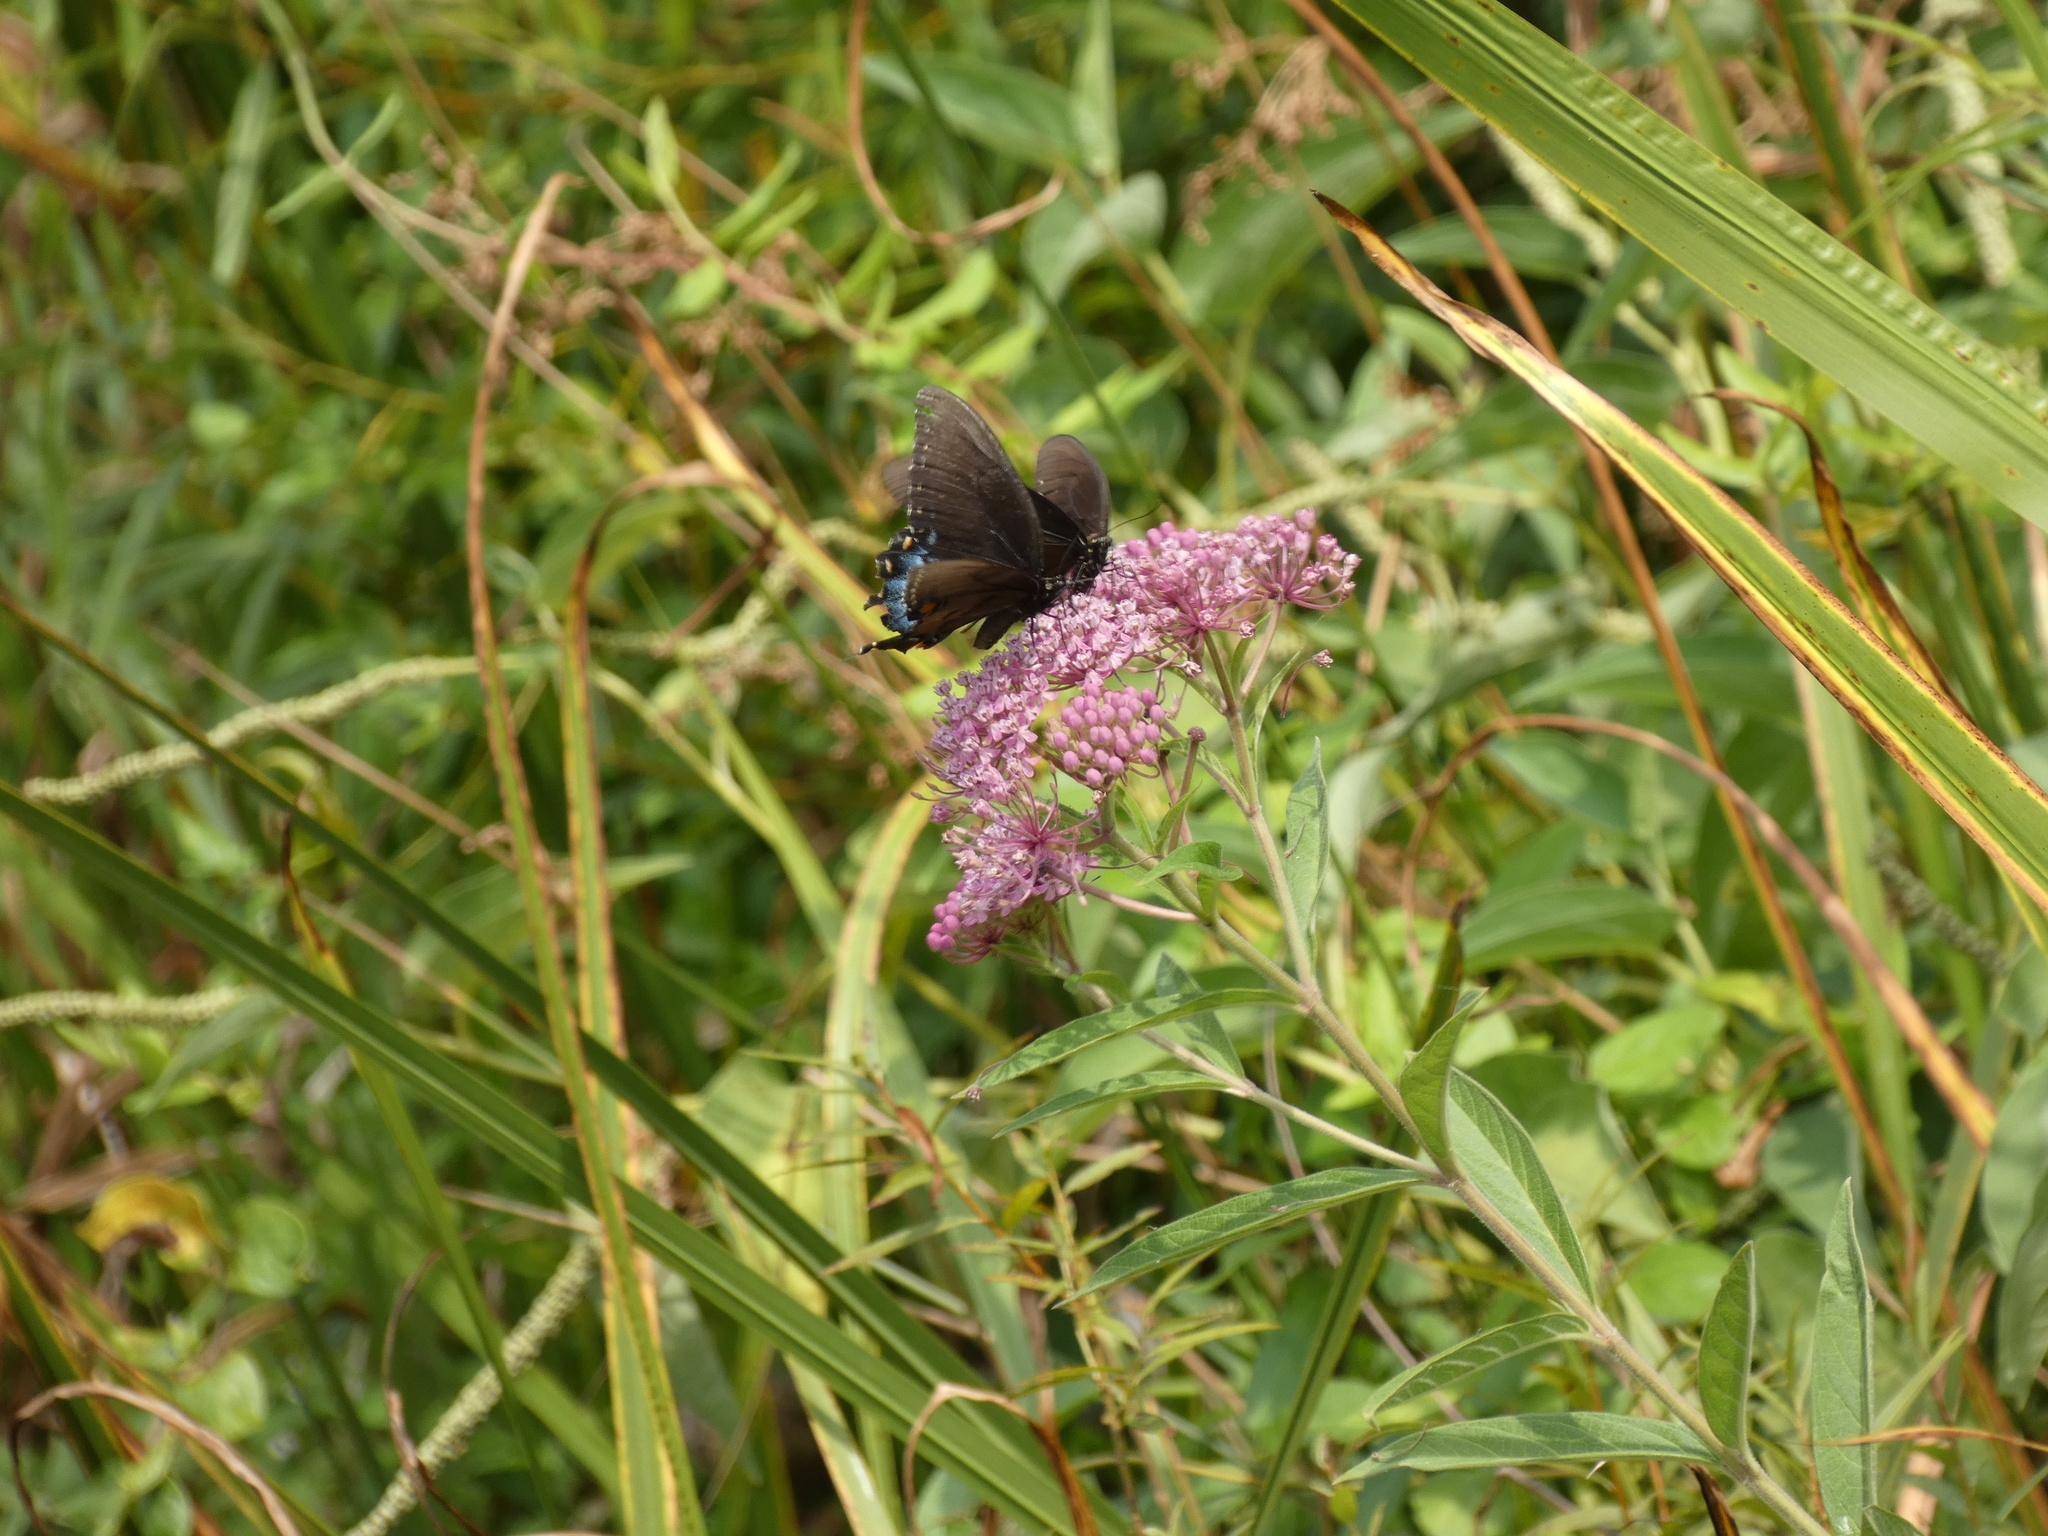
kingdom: Animalia
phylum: Arthropoda
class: Insecta
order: Lepidoptera
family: Papilionidae
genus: Papilio
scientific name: Papilio glaucus
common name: Tiger swallowtail
